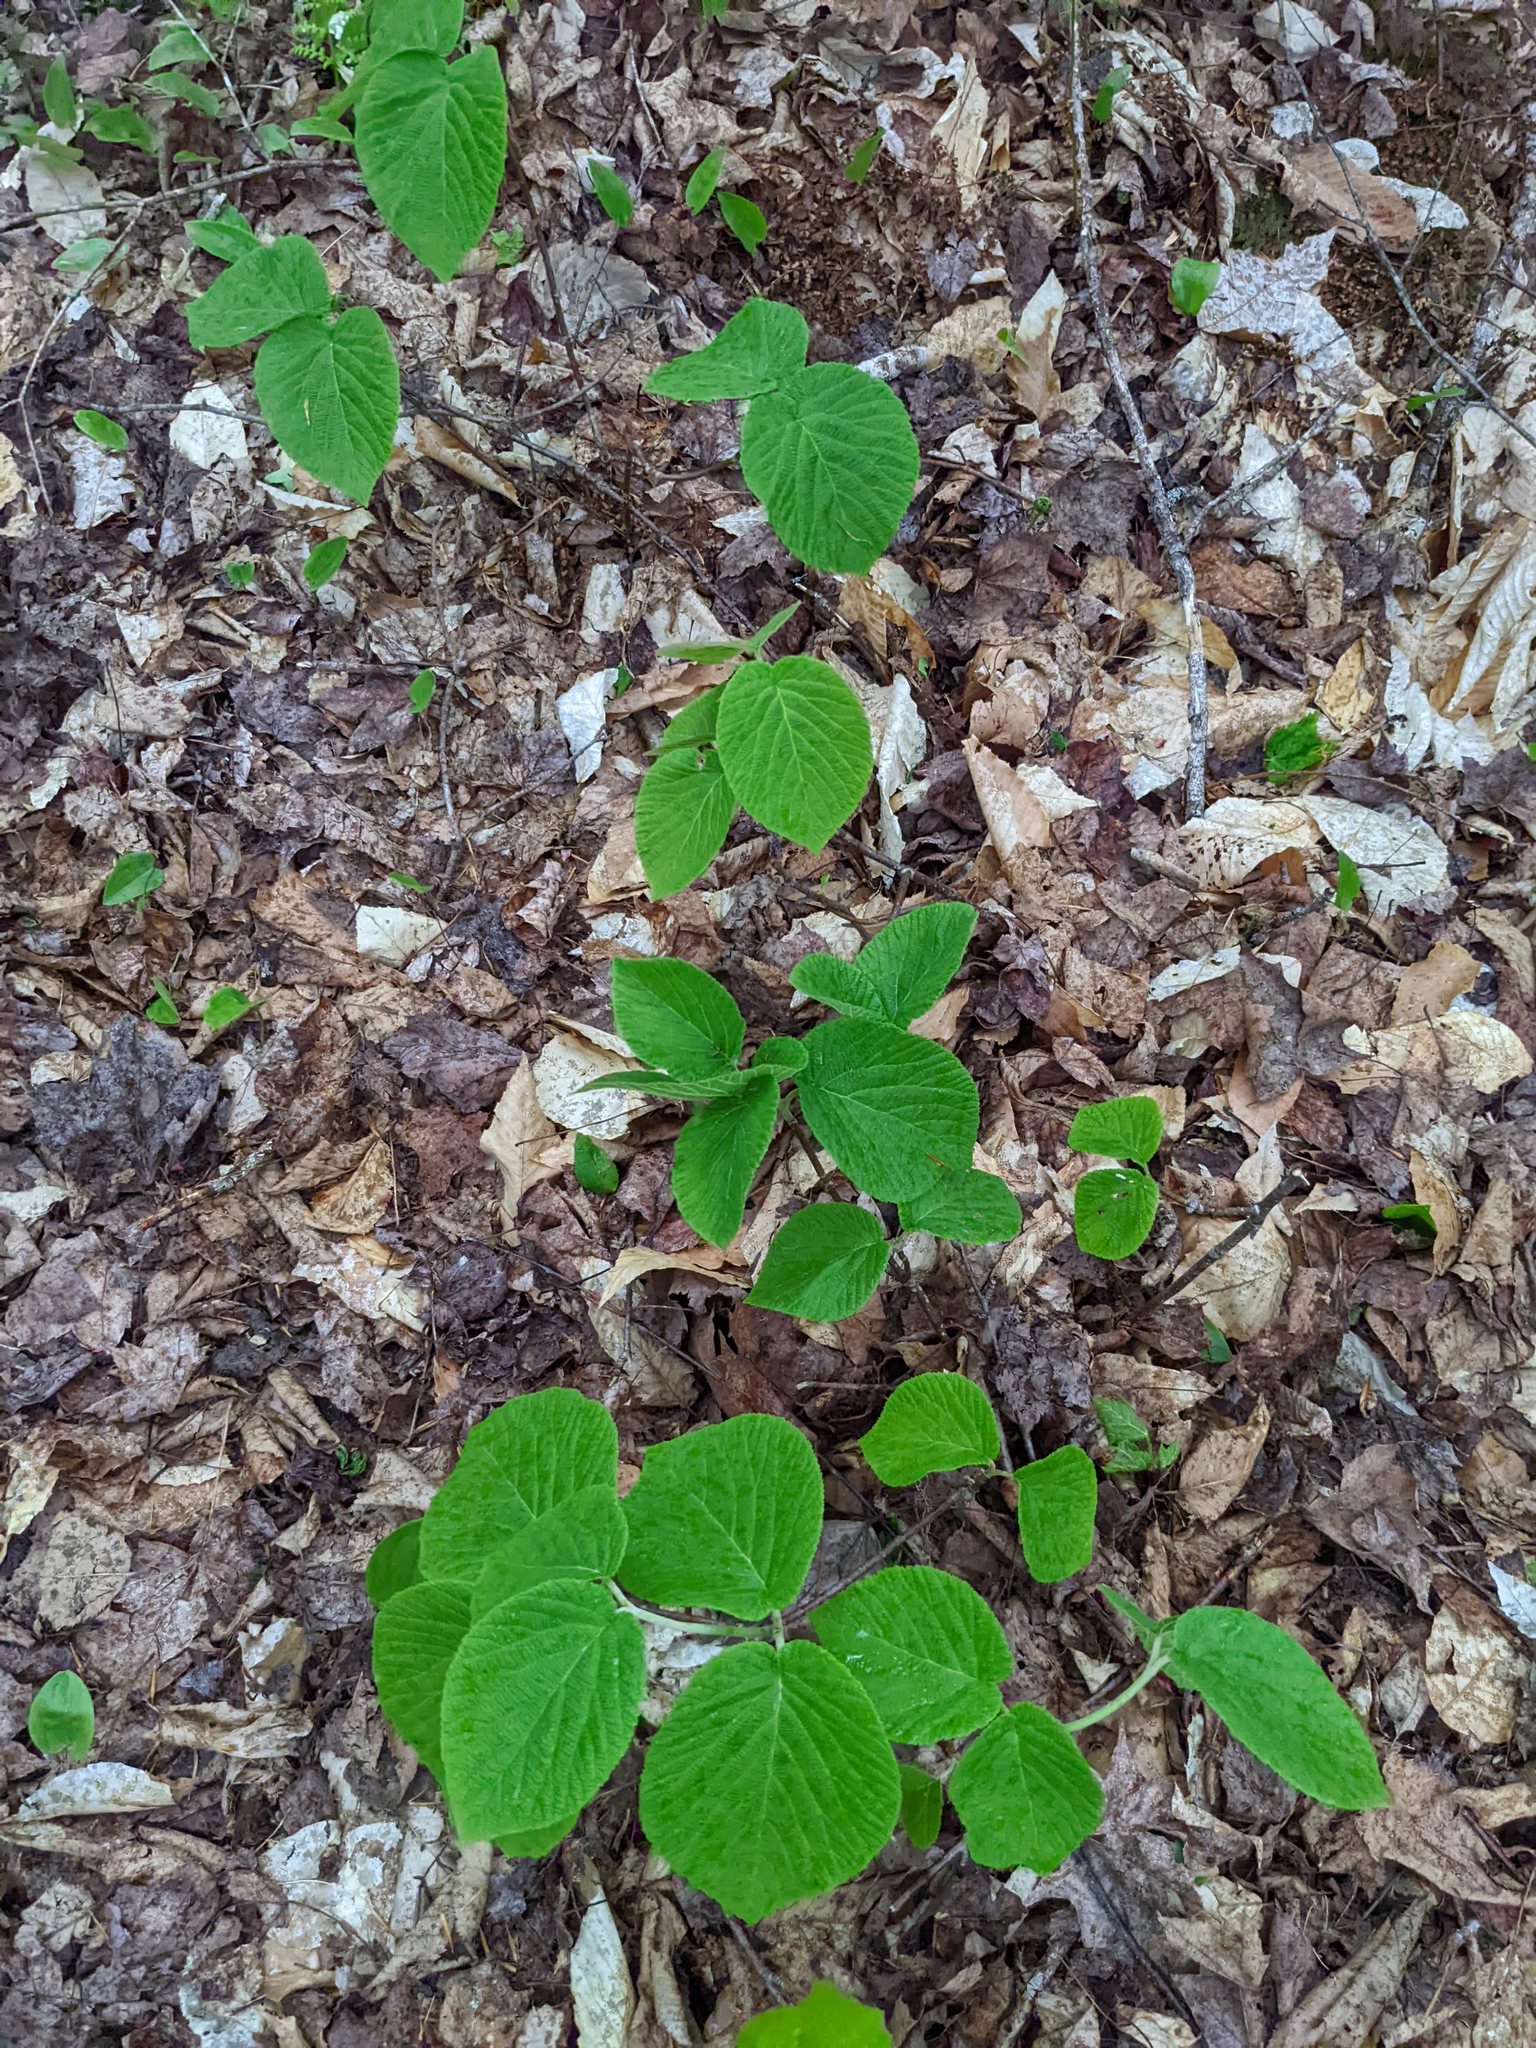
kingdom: Plantae
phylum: Tracheophyta
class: Magnoliopsida
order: Dipsacales
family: Viburnaceae
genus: Viburnum
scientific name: Viburnum lantanoides
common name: Hobblebush
